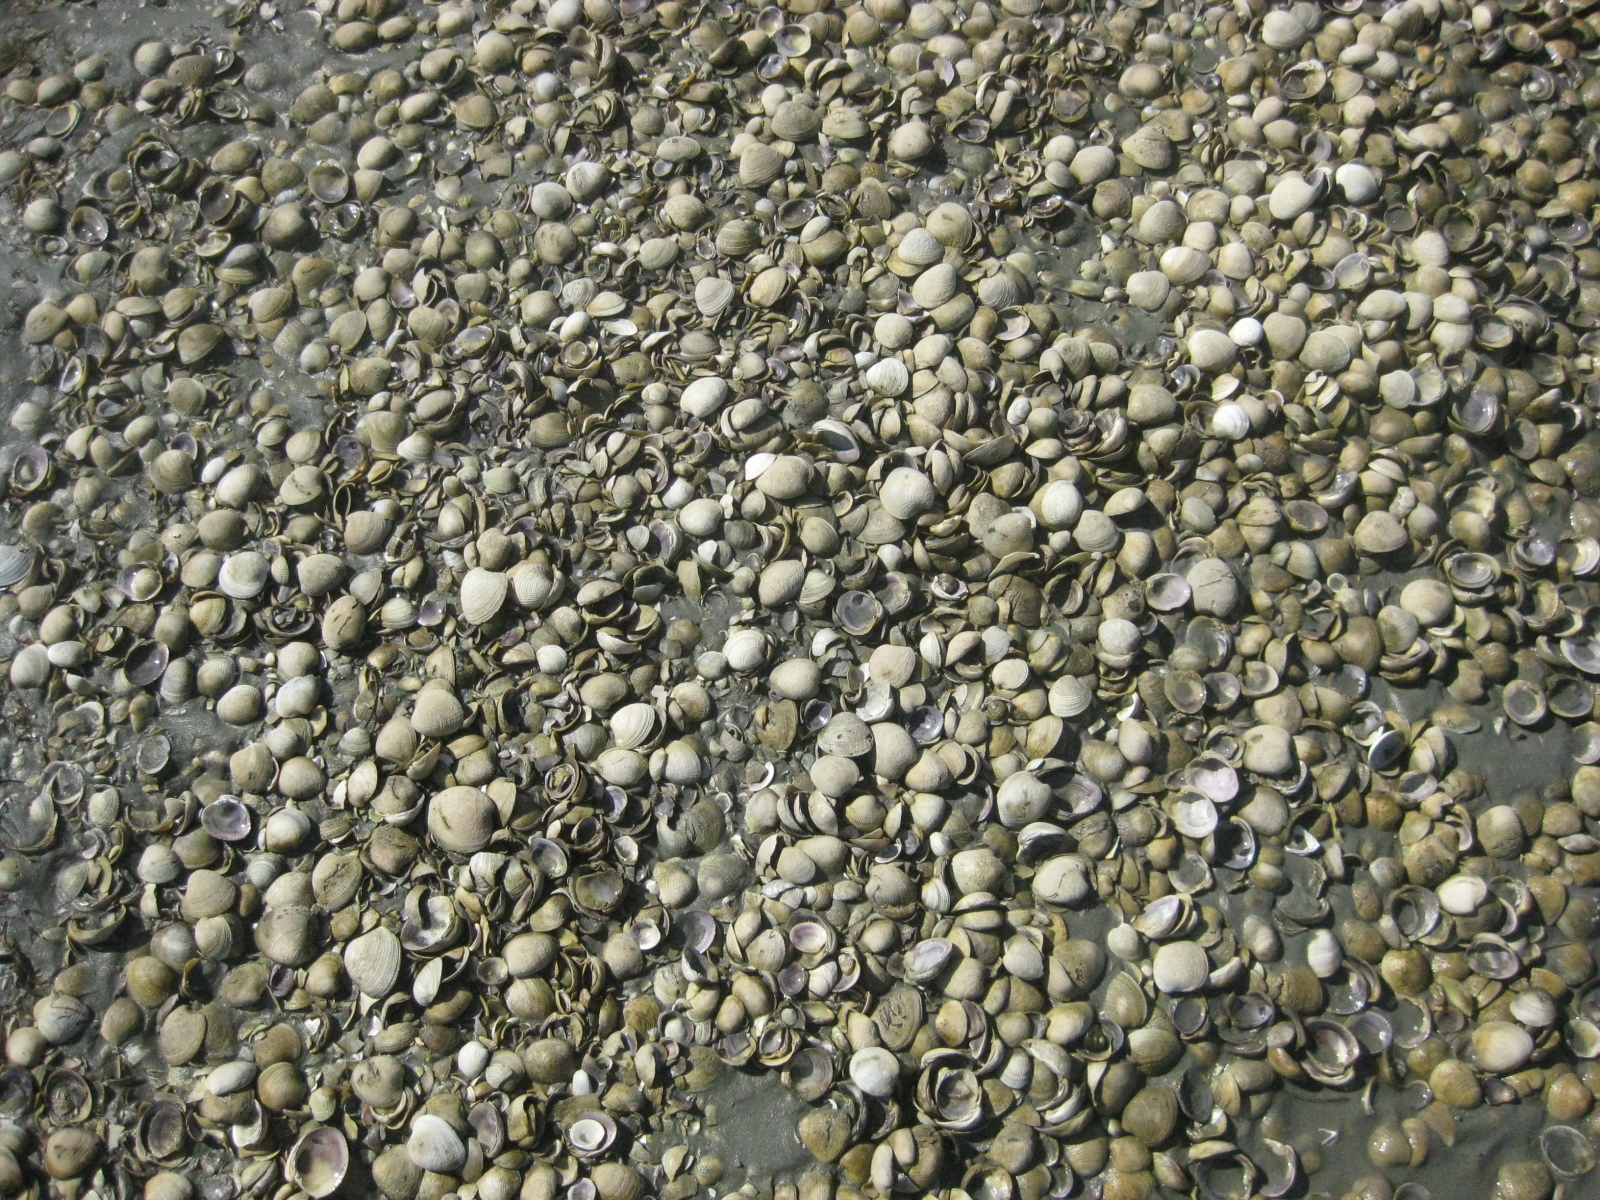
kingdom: Animalia
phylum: Mollusca
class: Bivalvia
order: Venerida
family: Veneridae
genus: Austrovenus
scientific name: Austrovenus stutchburyi
